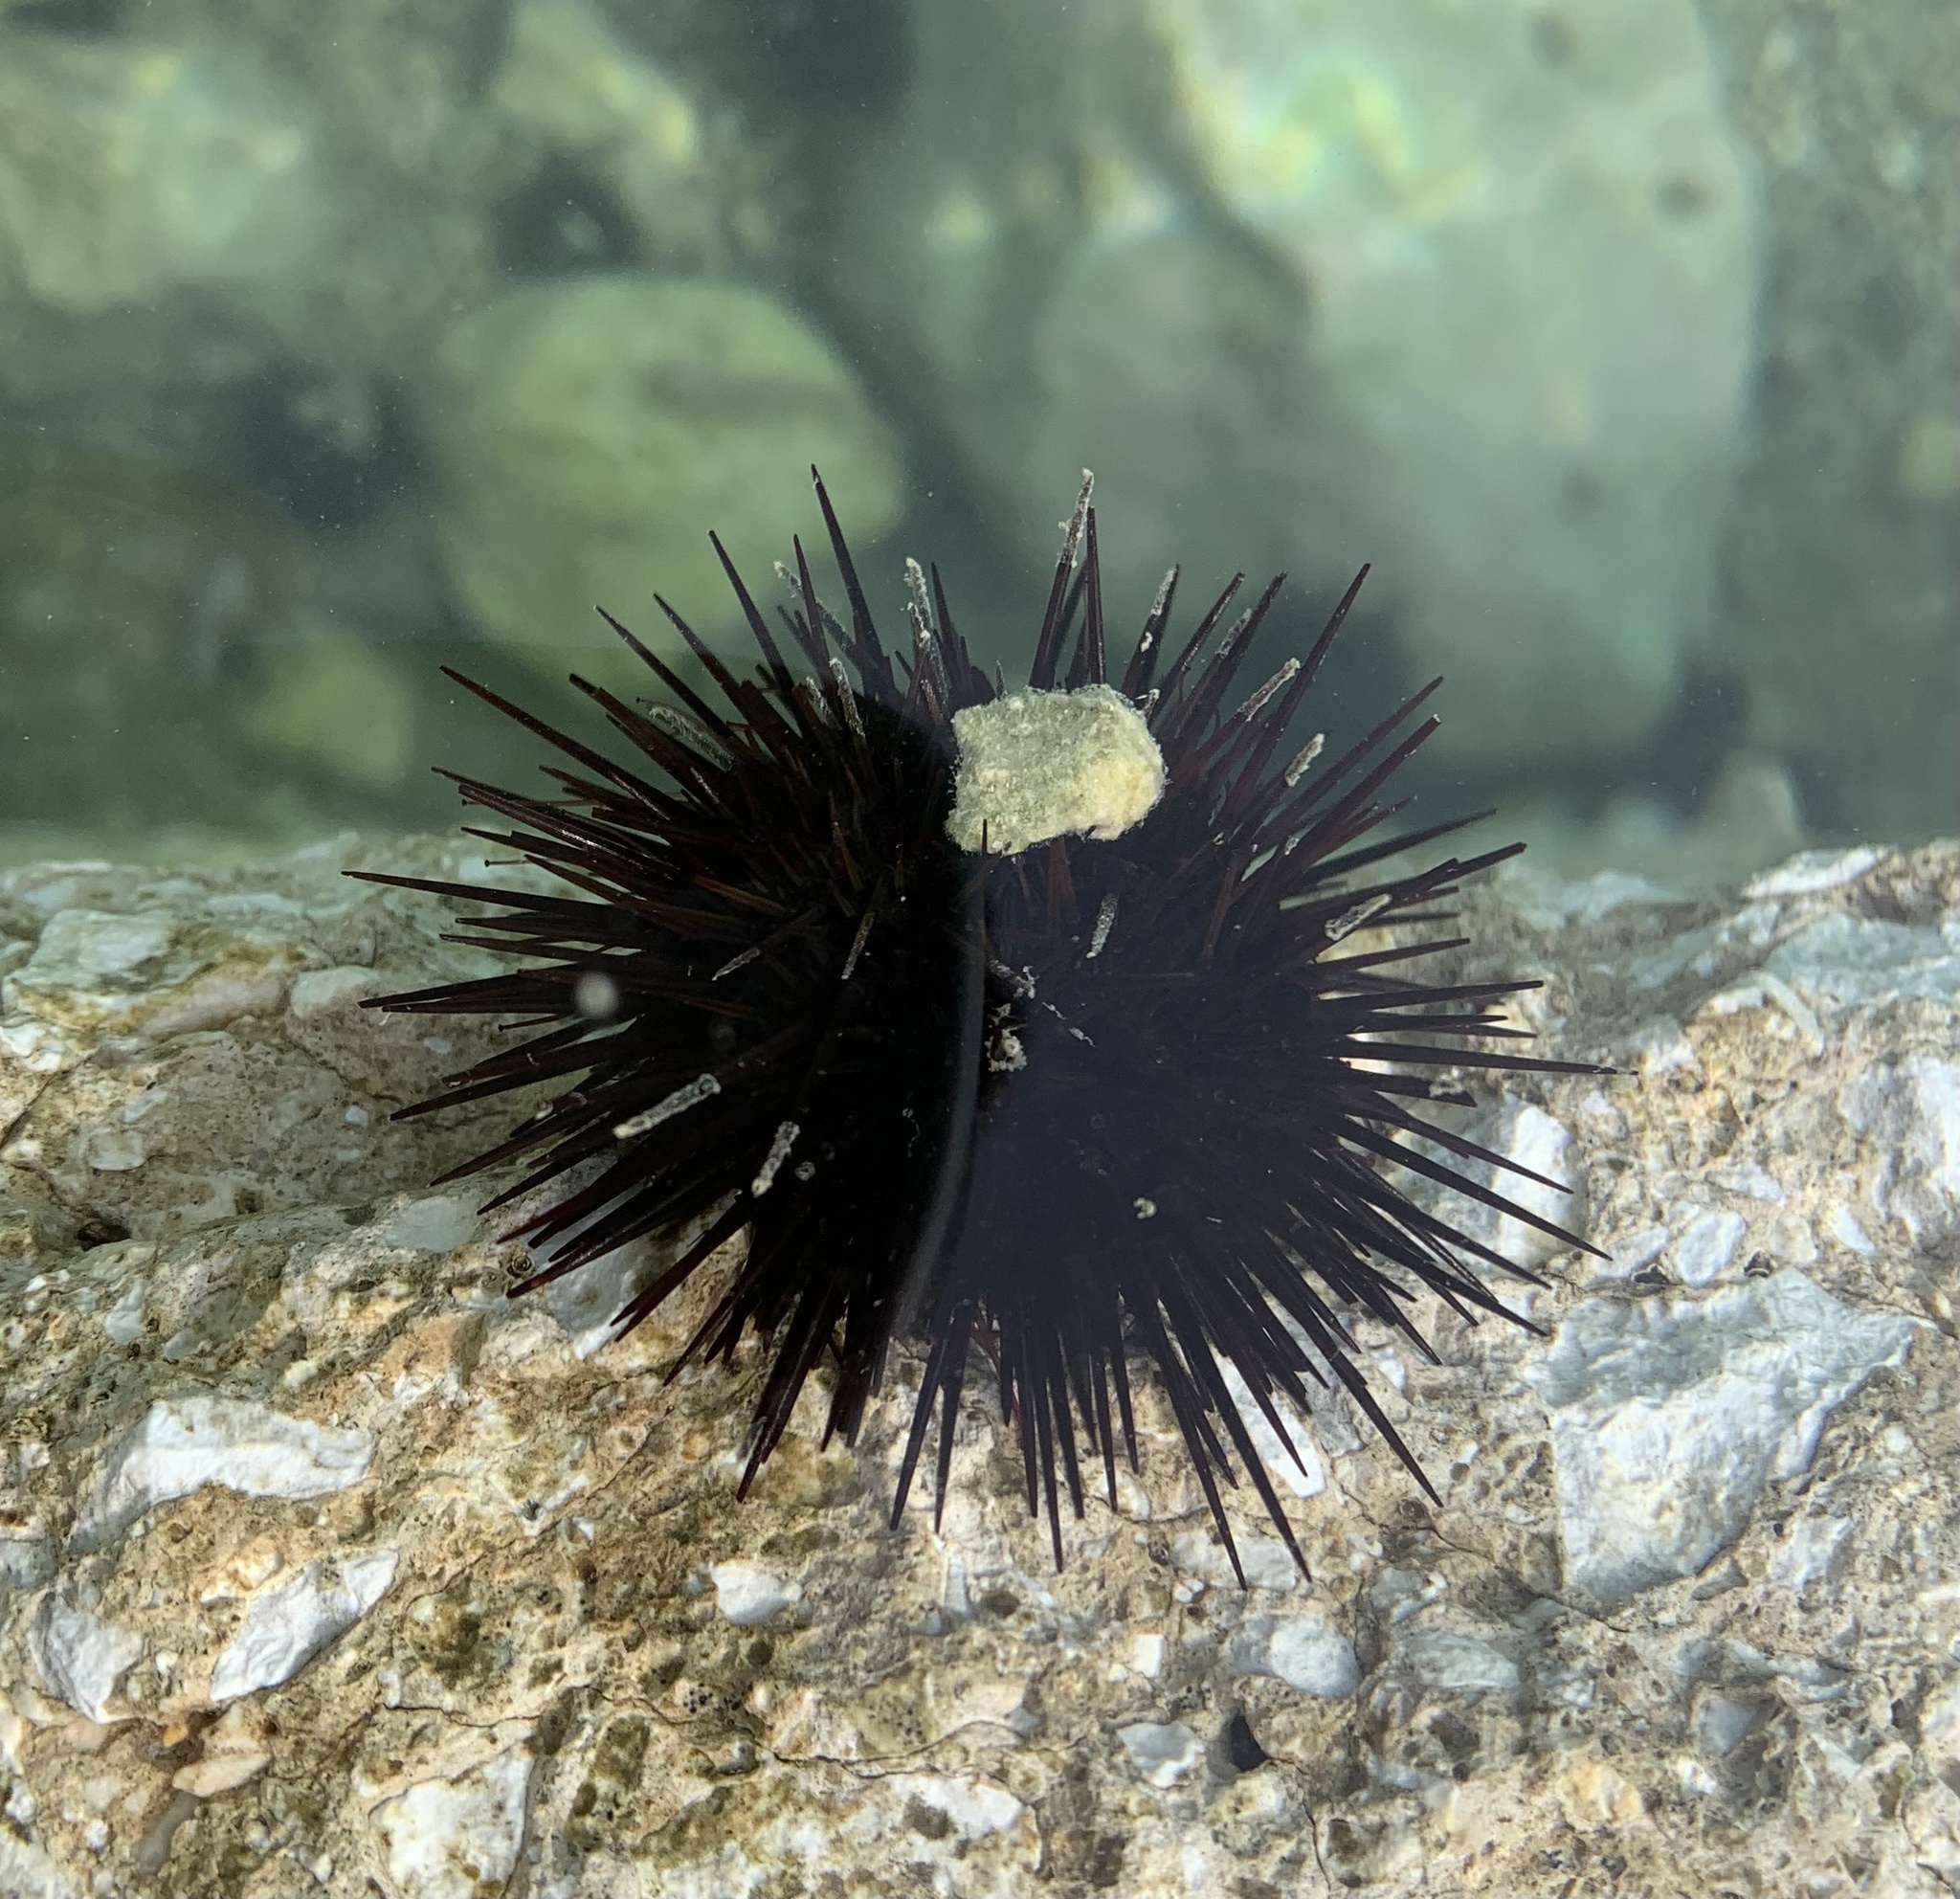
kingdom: Animalia
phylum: Echinodermata
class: Echinoidea
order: Camarodonta
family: Parechinidae
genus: Paracentrotus
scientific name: Paracentrotus lividus
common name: Purple sea urchin
